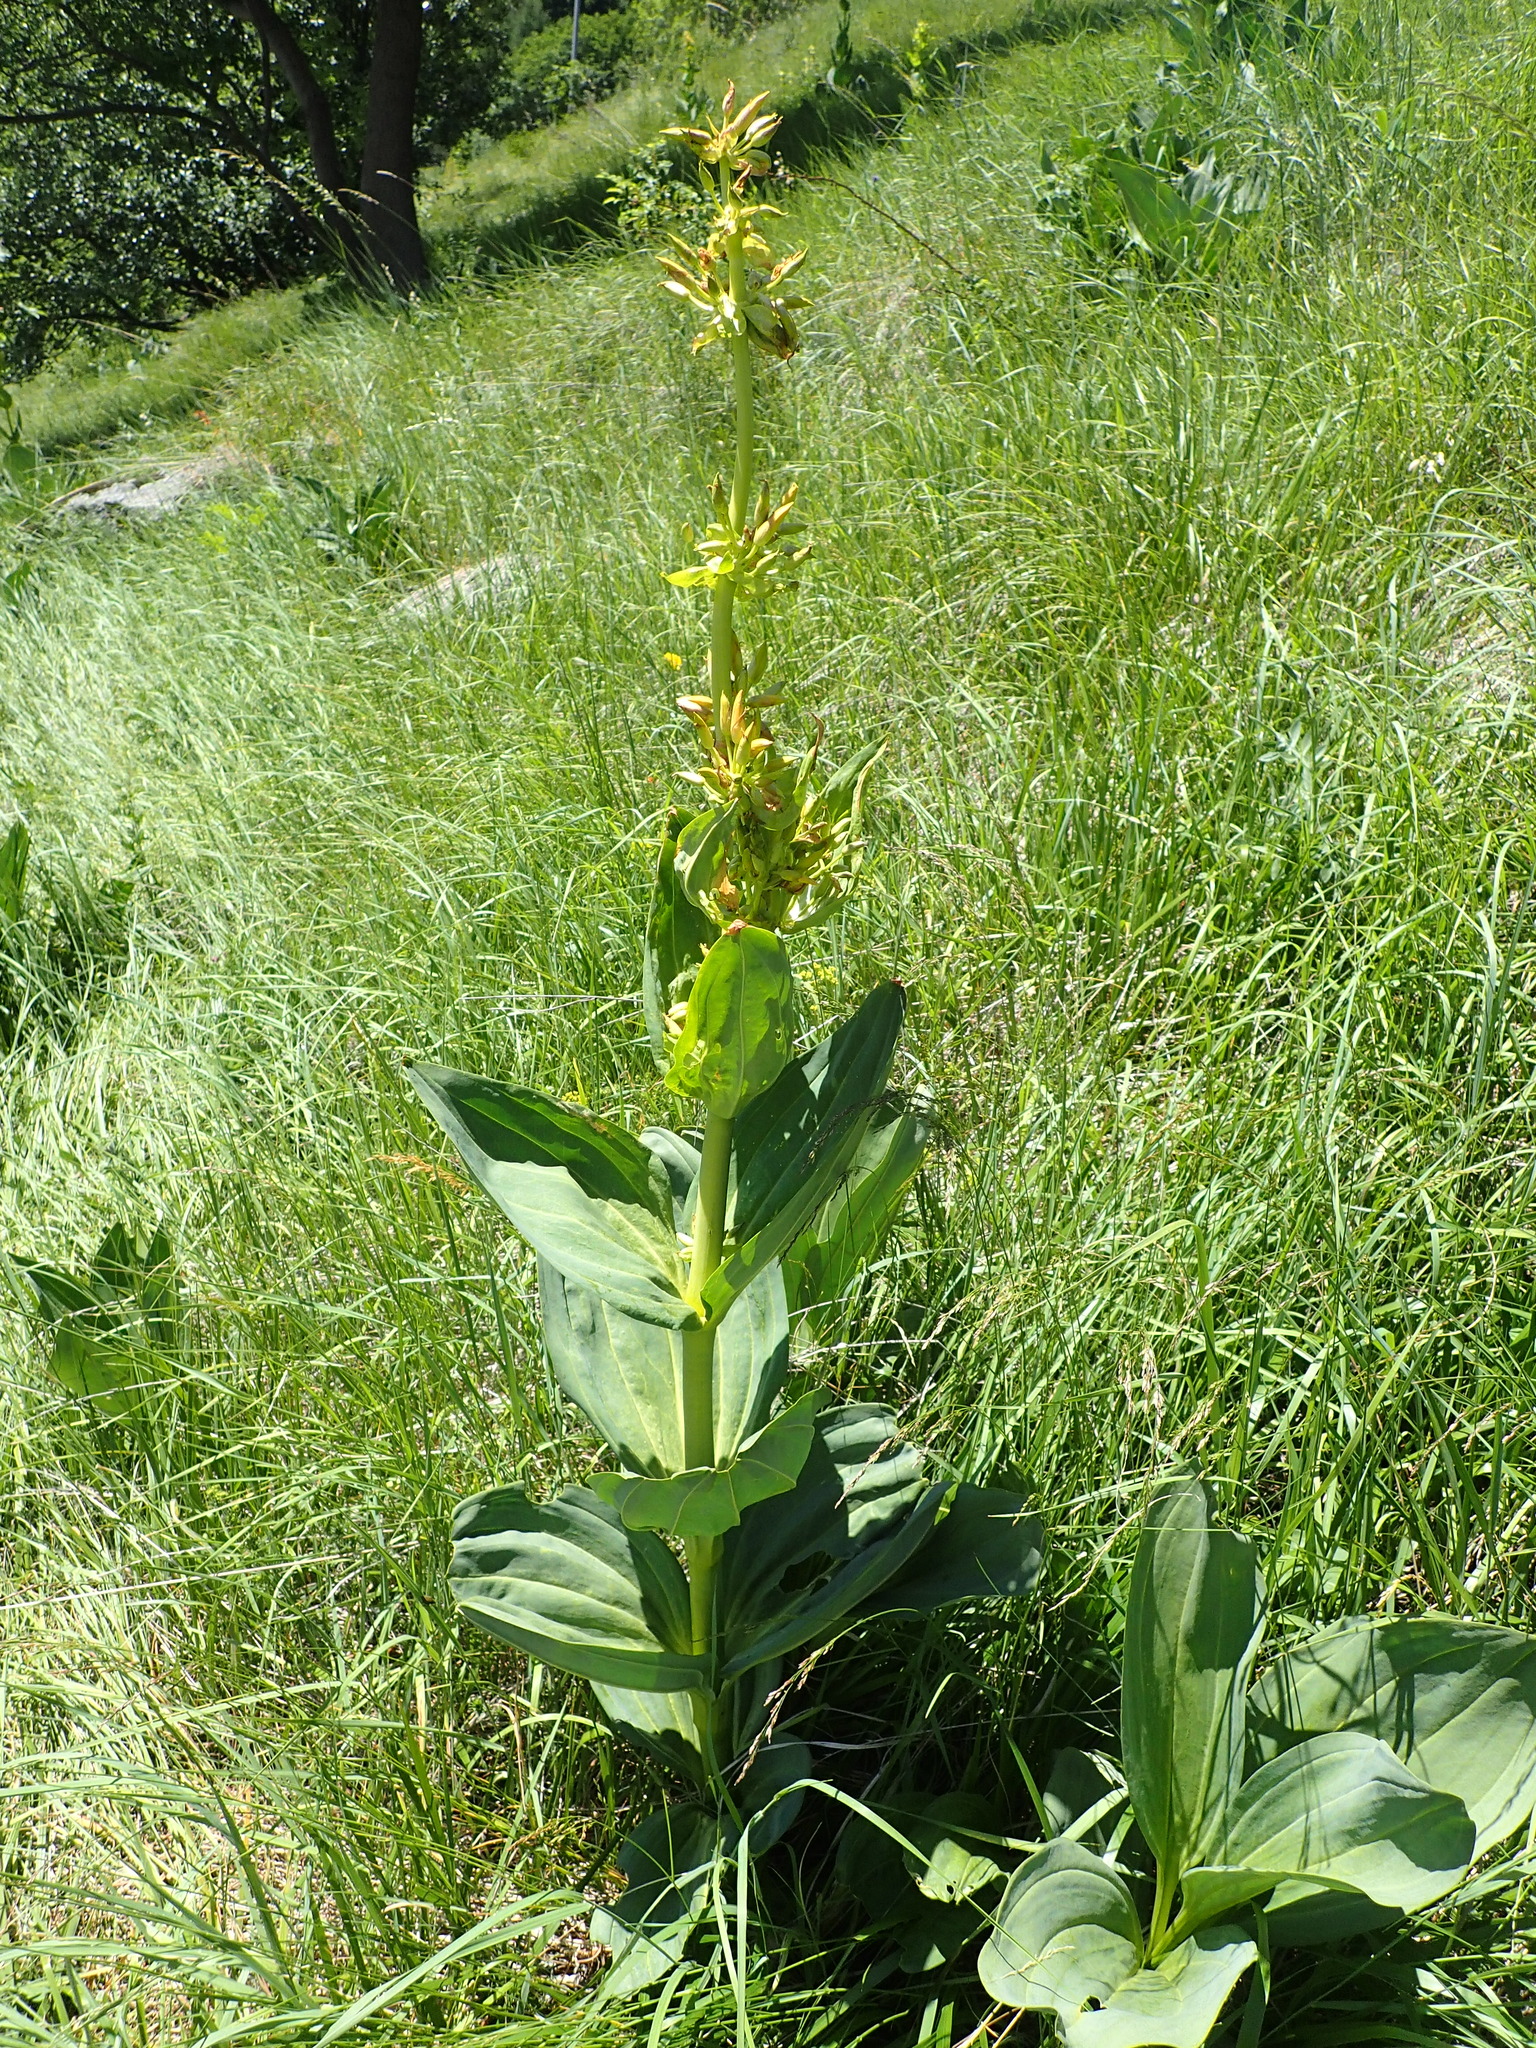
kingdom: Plantae
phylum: Tracheophyta
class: Magnoliopsida
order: Gentianales
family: Gentianaceae
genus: Gentiana
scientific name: Gentiana lutea
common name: Great yellow gentian
